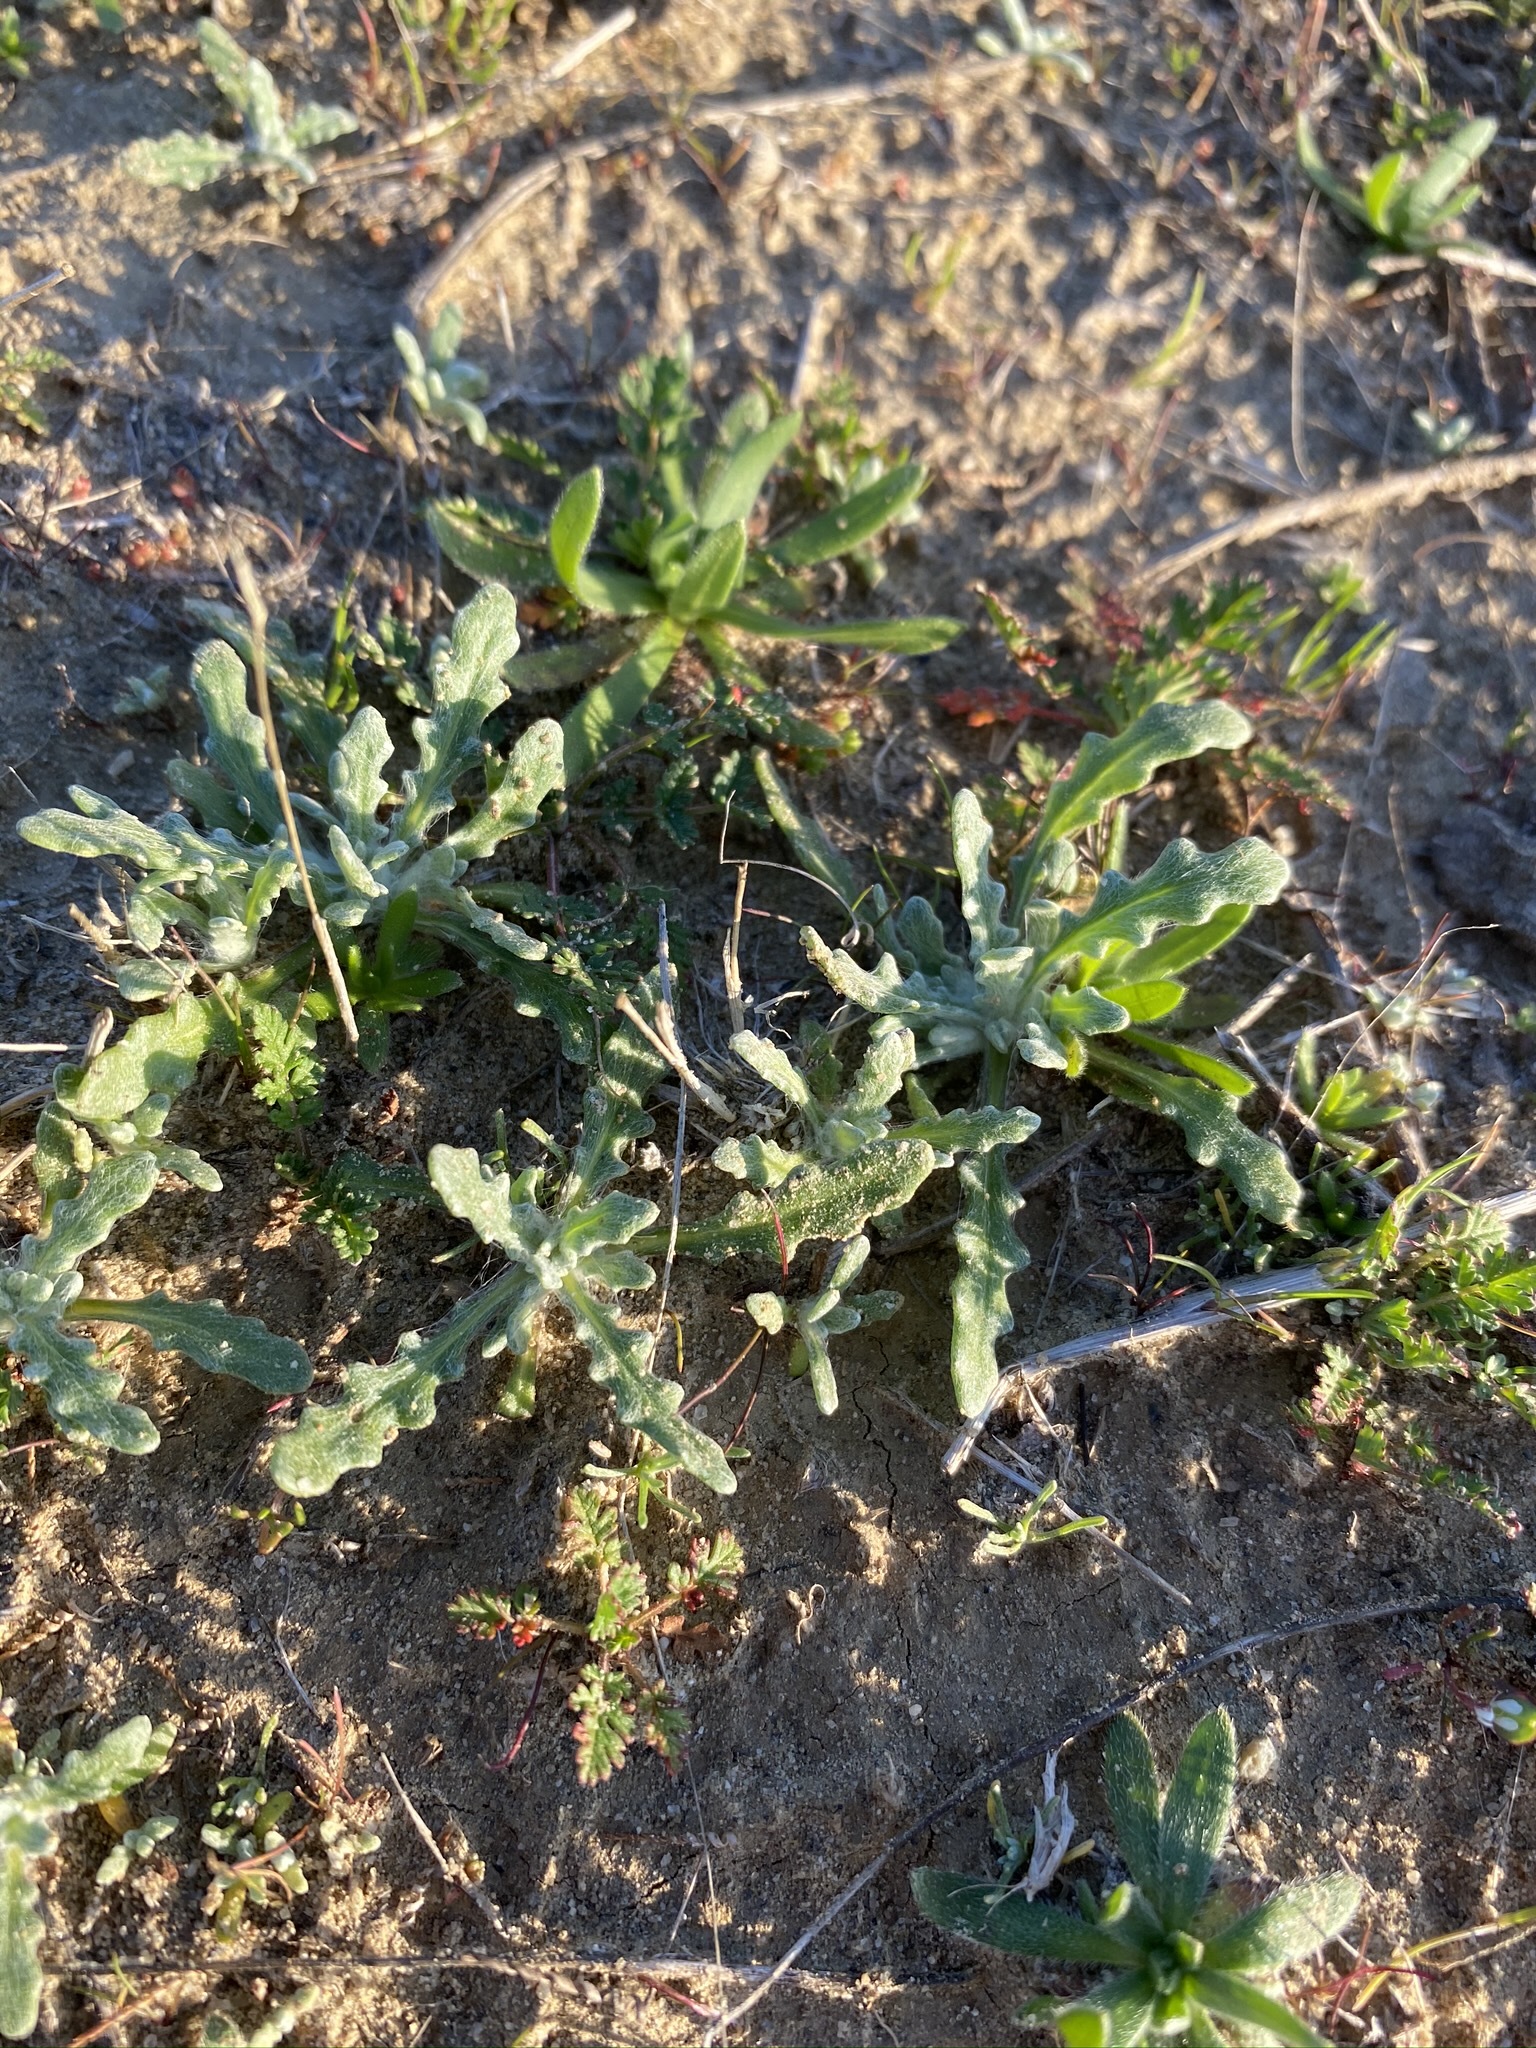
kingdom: Plantae
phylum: Tracheophyta
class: Magnoliopsida
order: Asterales
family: Asteraceae
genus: Monolopia
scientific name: Monolopia congdonii
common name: San joaquin woolly-threads
